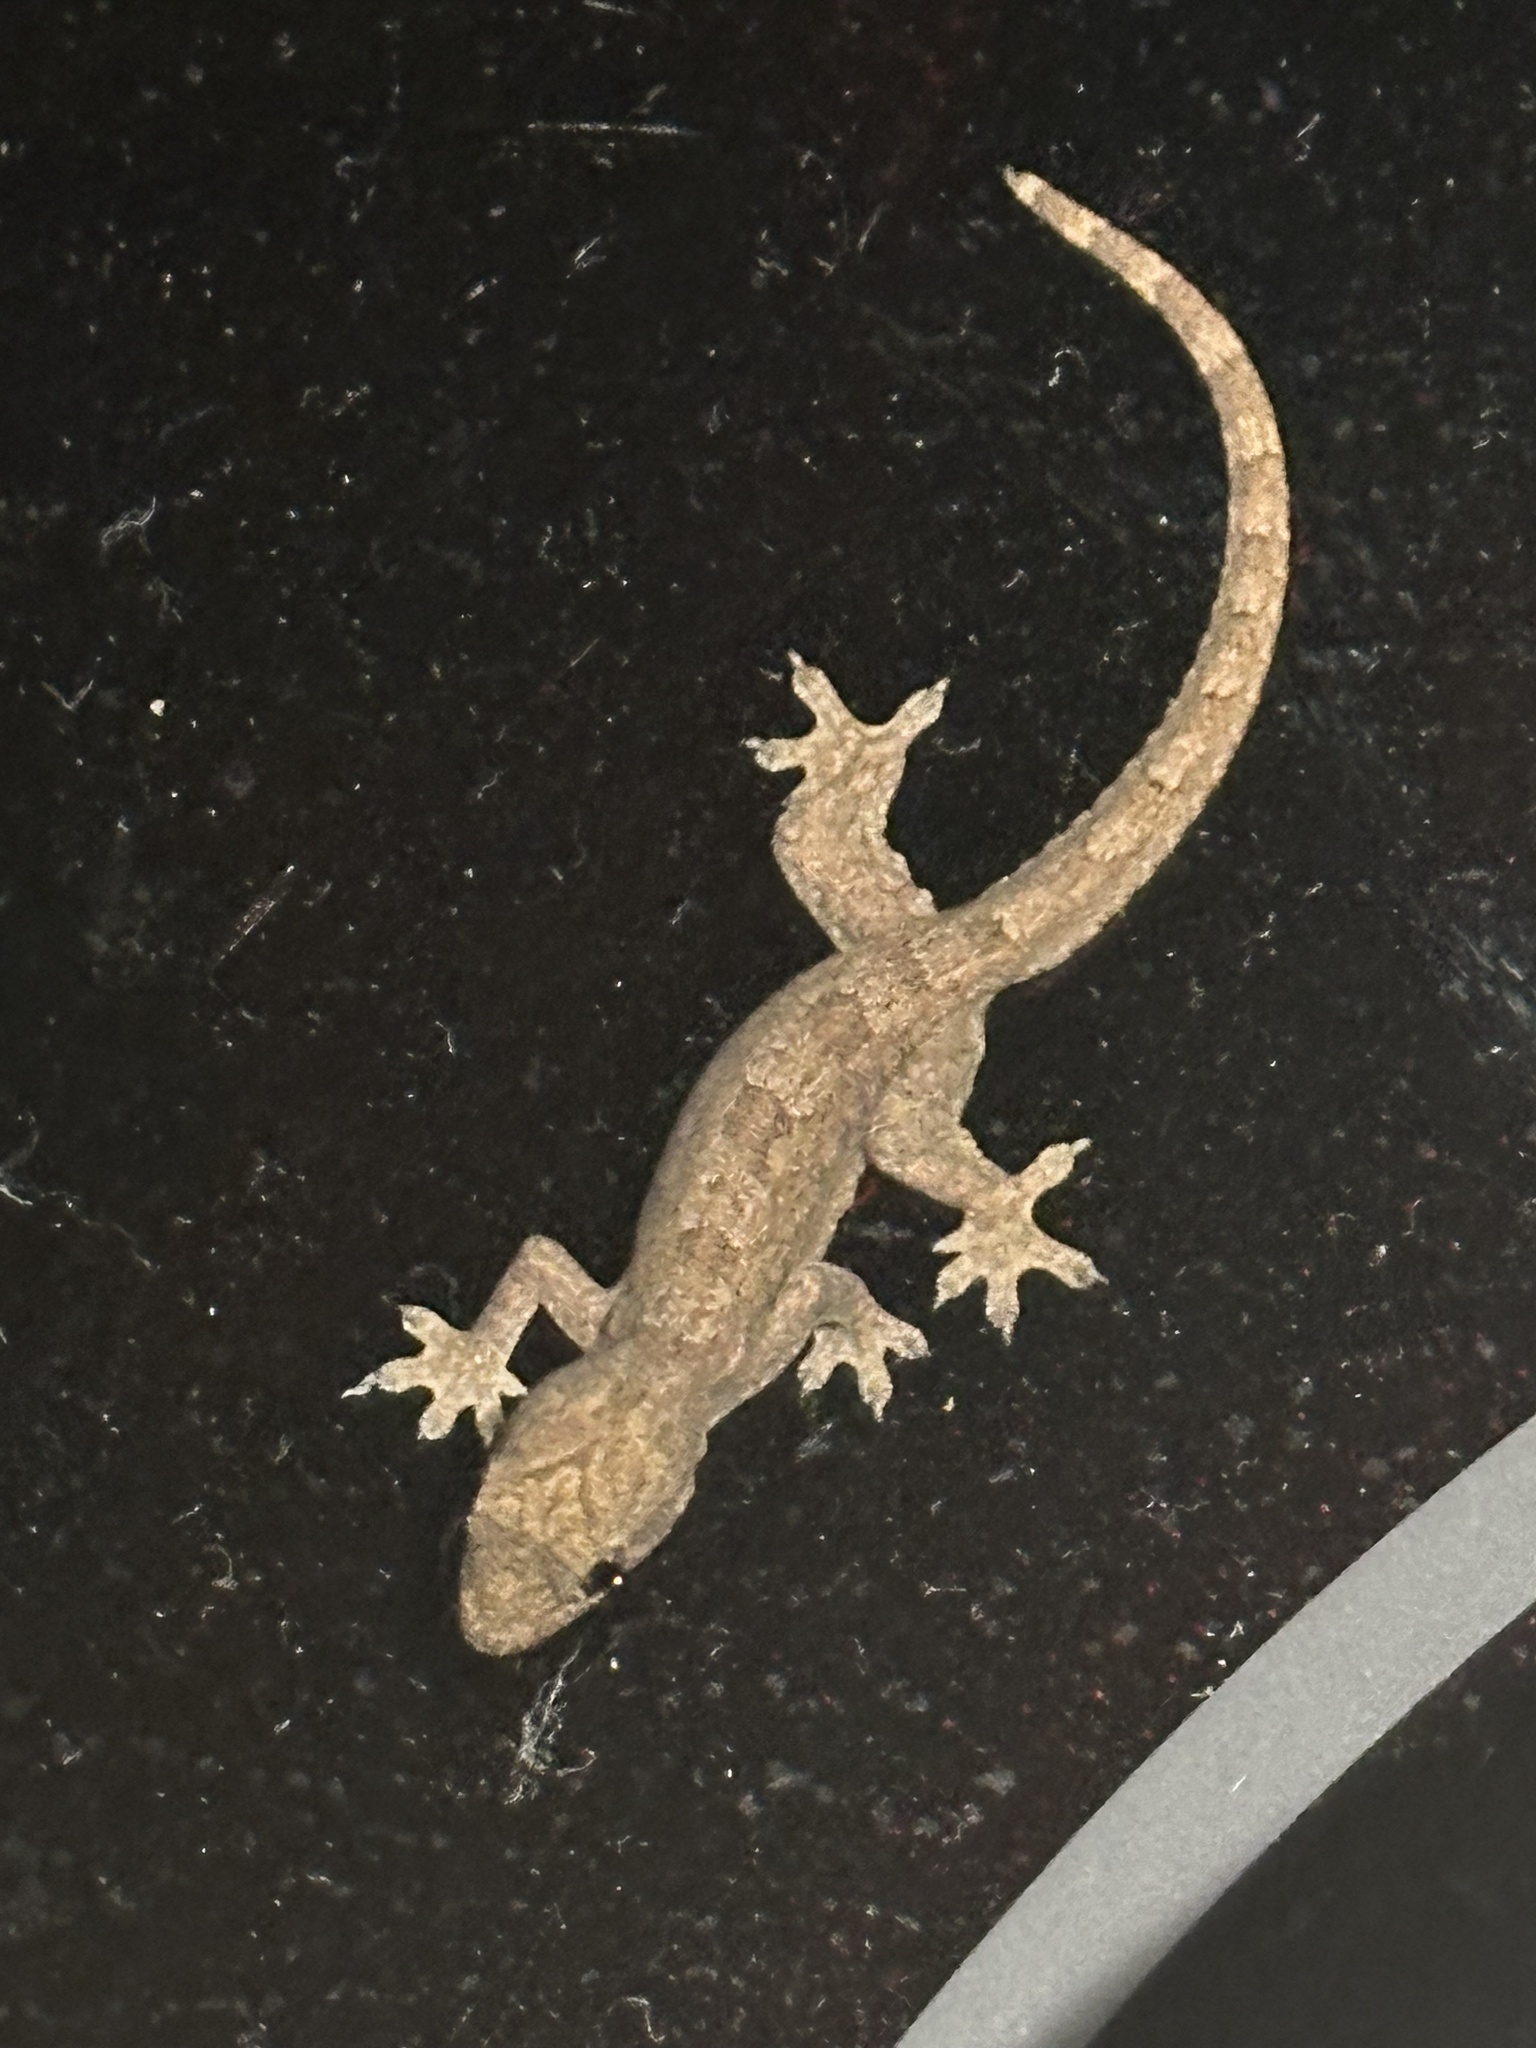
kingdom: Animalia
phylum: Chordata
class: Squamata
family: Gekkonidae
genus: Hemidactylus
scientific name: Hemidactylus platyurus
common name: Flat-tailed house gecko
